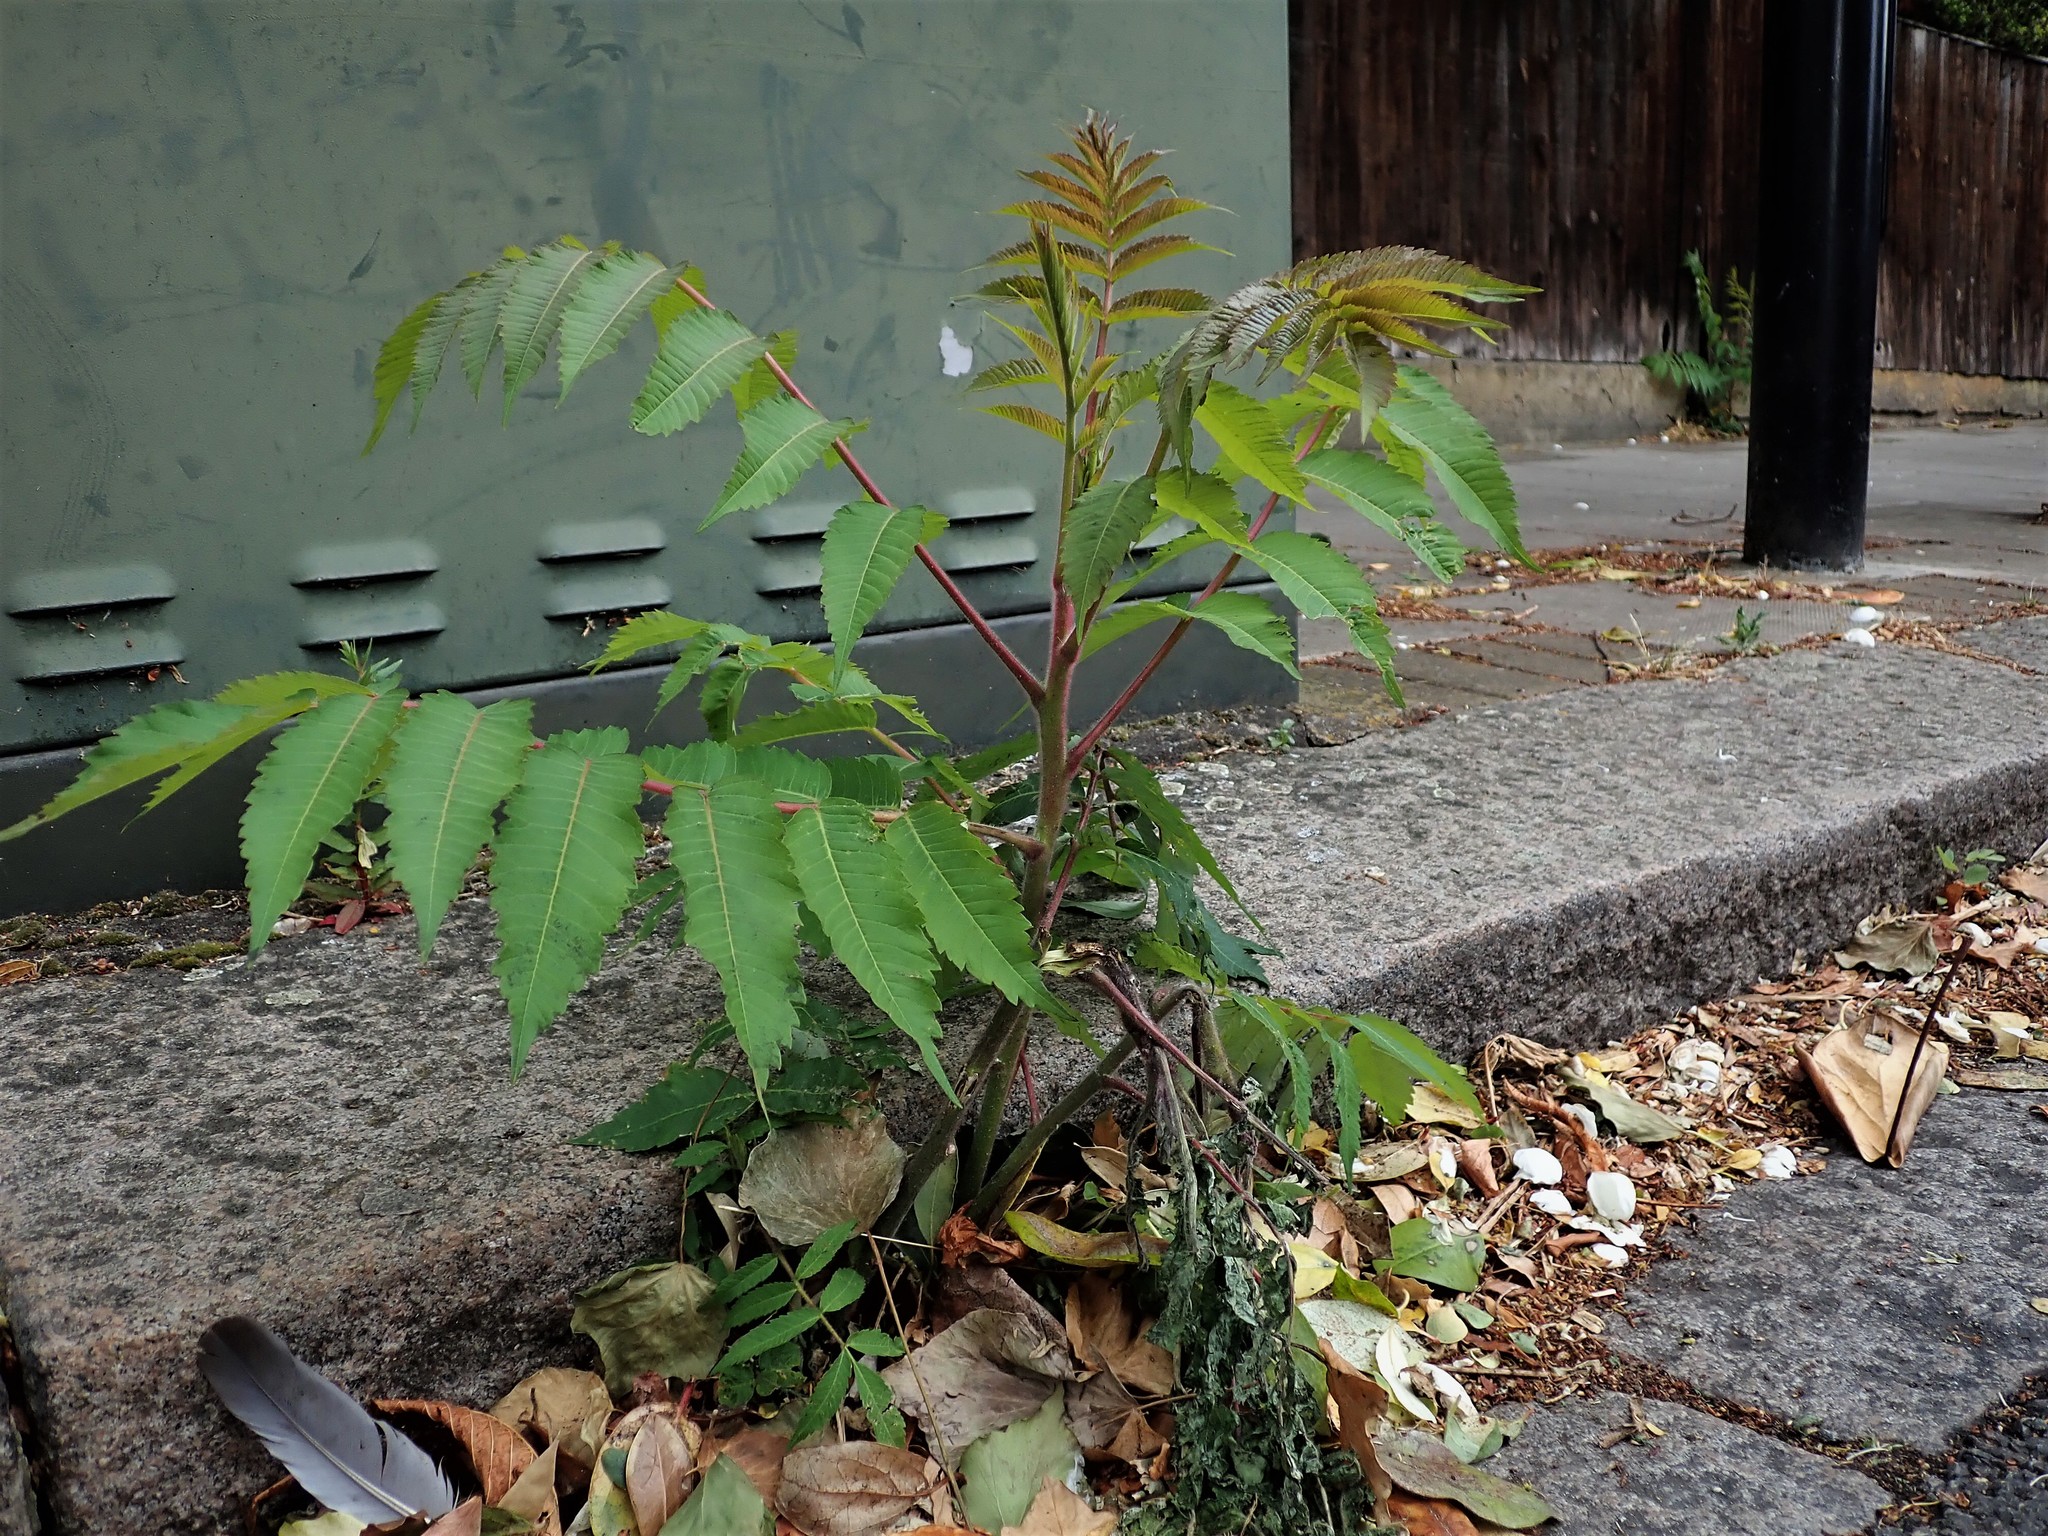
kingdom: Plantae
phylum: Tracheophyta
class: Magnoliopsida
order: Sapindales
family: Anacardiaceae
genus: Rhus
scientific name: Rhus typhina
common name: Staghorn sumac
